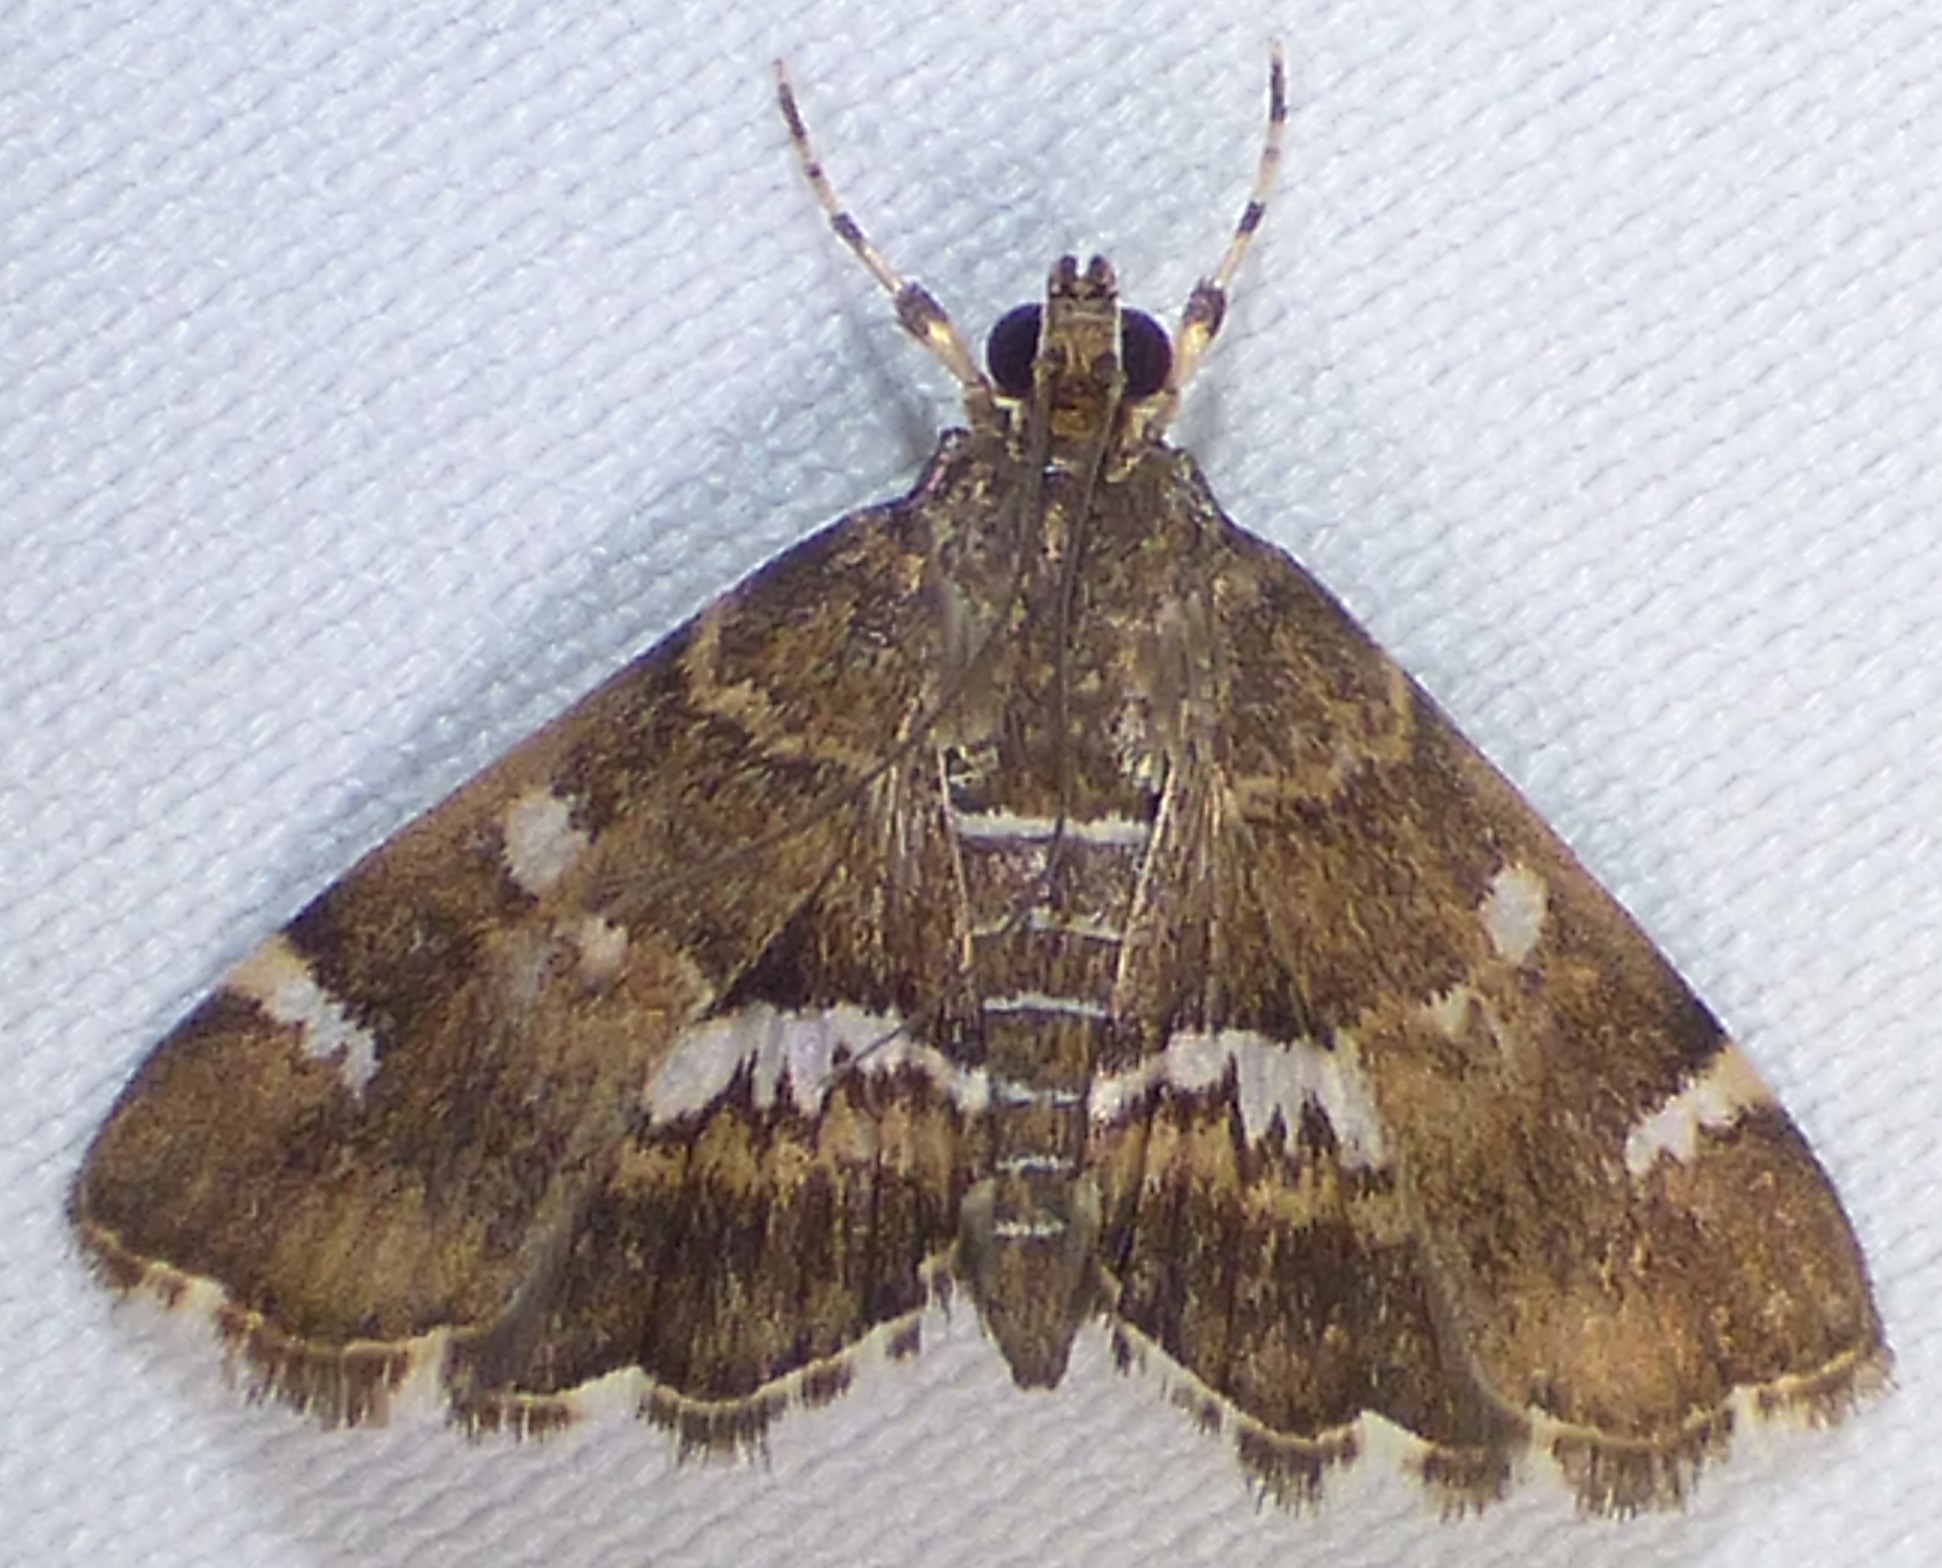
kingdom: Animalia
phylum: Arthropoda
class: Insecta
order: Lepidoptera
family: Crambidae
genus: Hymenia
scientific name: Hymenia perspectalis
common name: Spotted beet webworm
